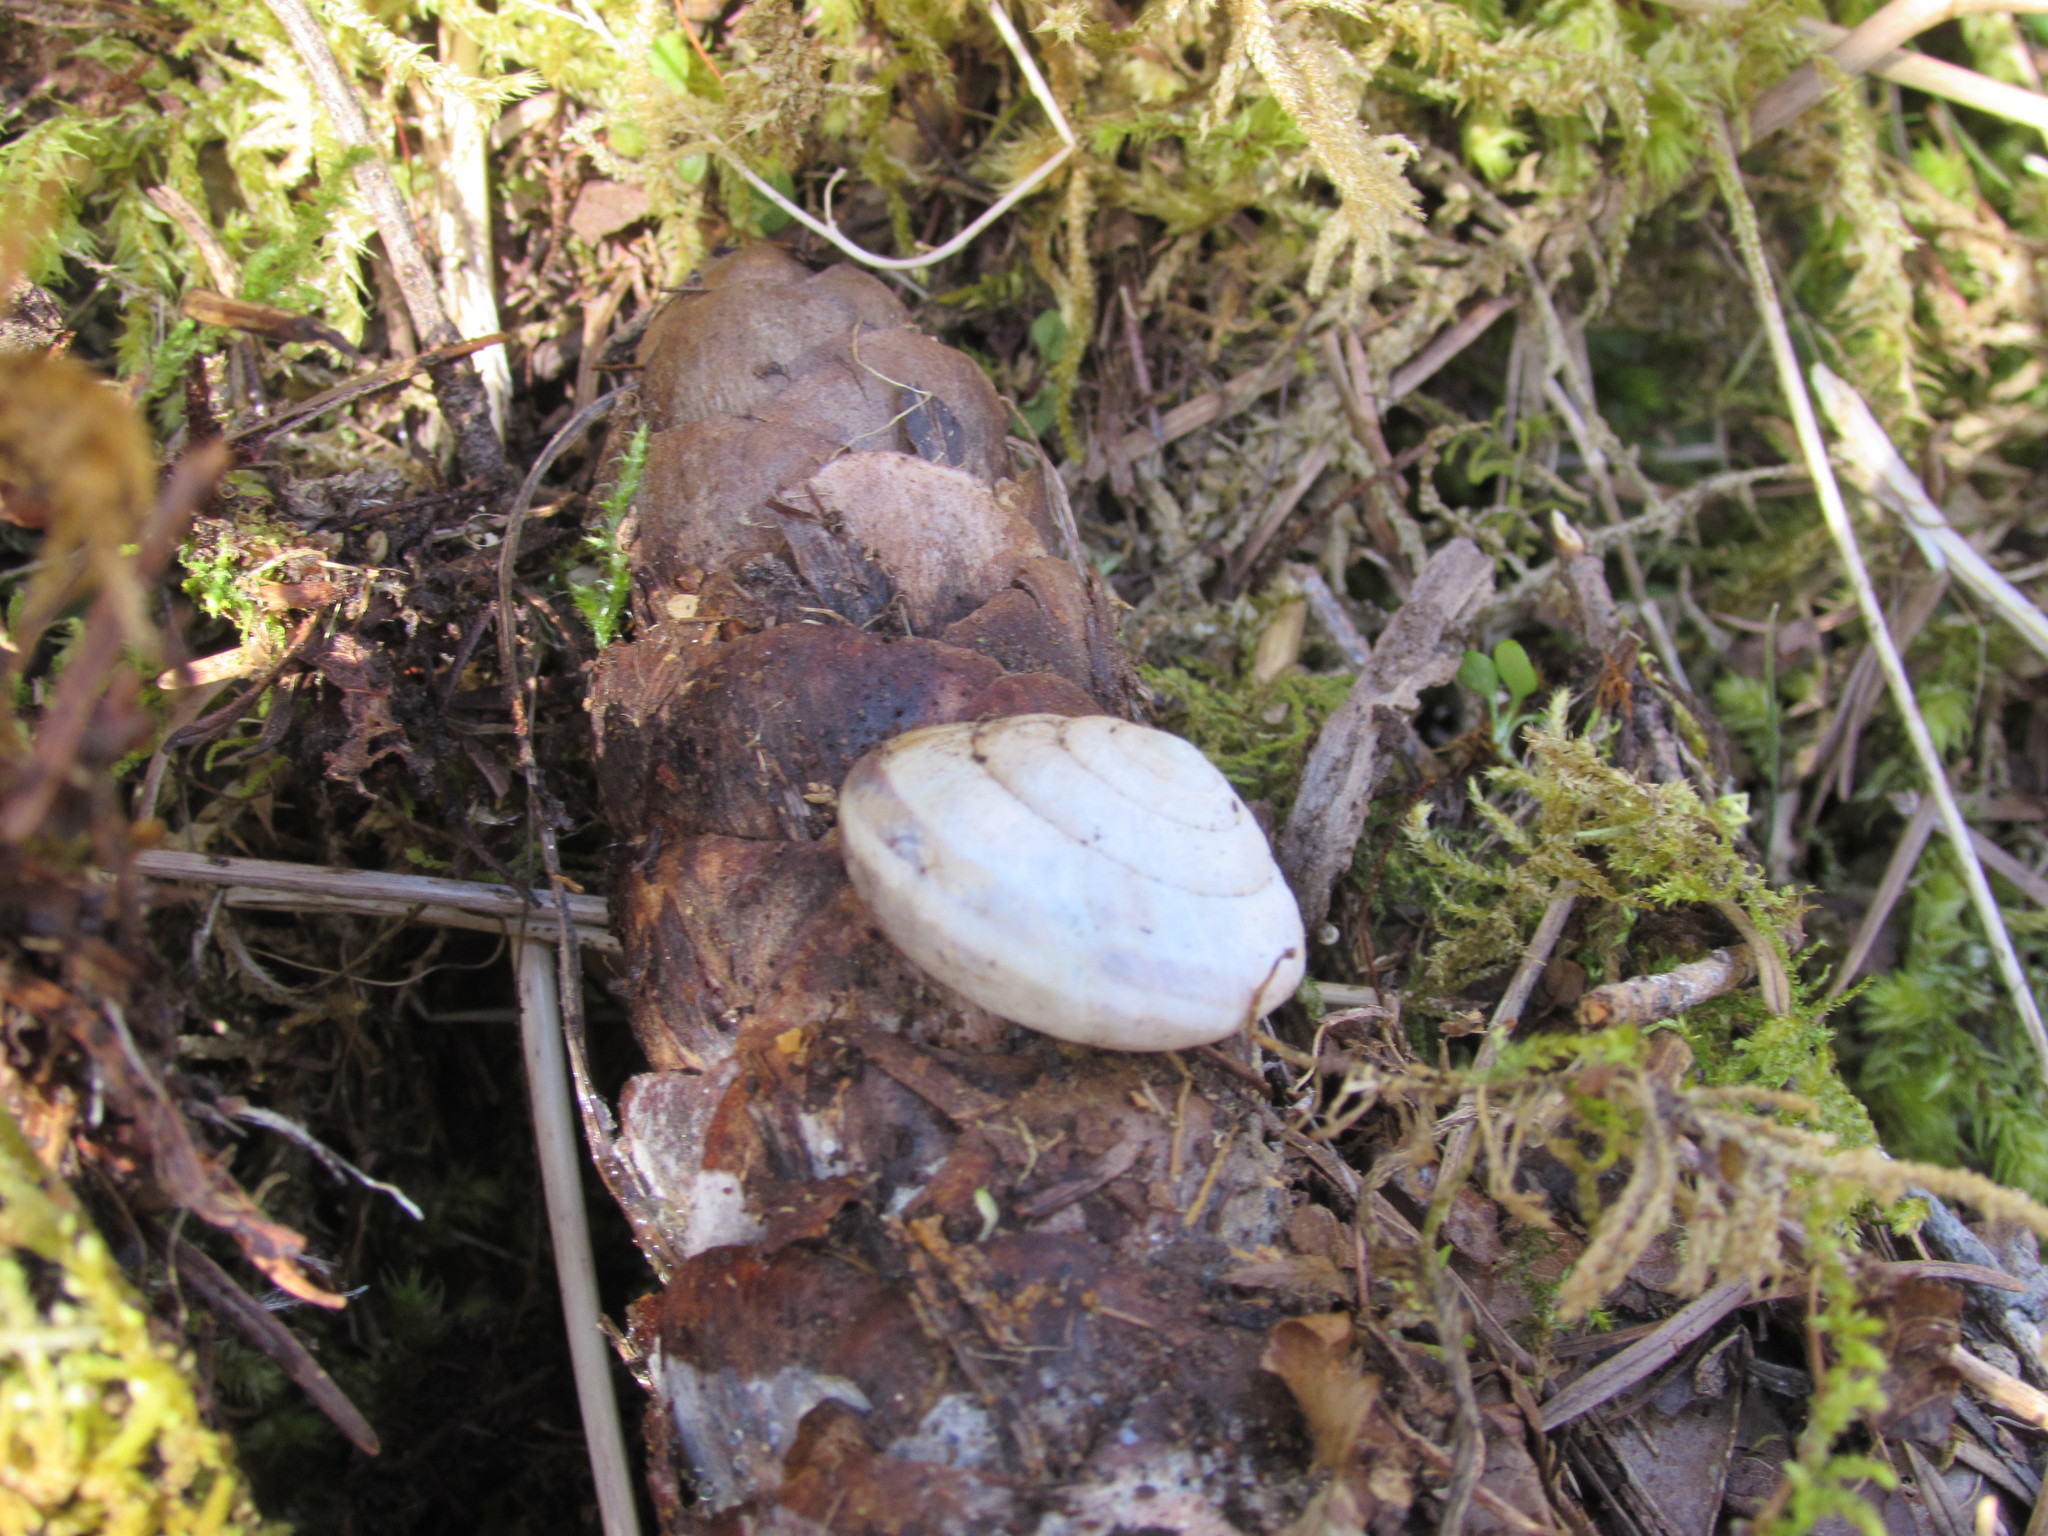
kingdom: Animalia
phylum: Mollusca
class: Gastropoda
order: Stylommatophora
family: Xanthonychidae
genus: Monadenia
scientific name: Monadenia fidelis
